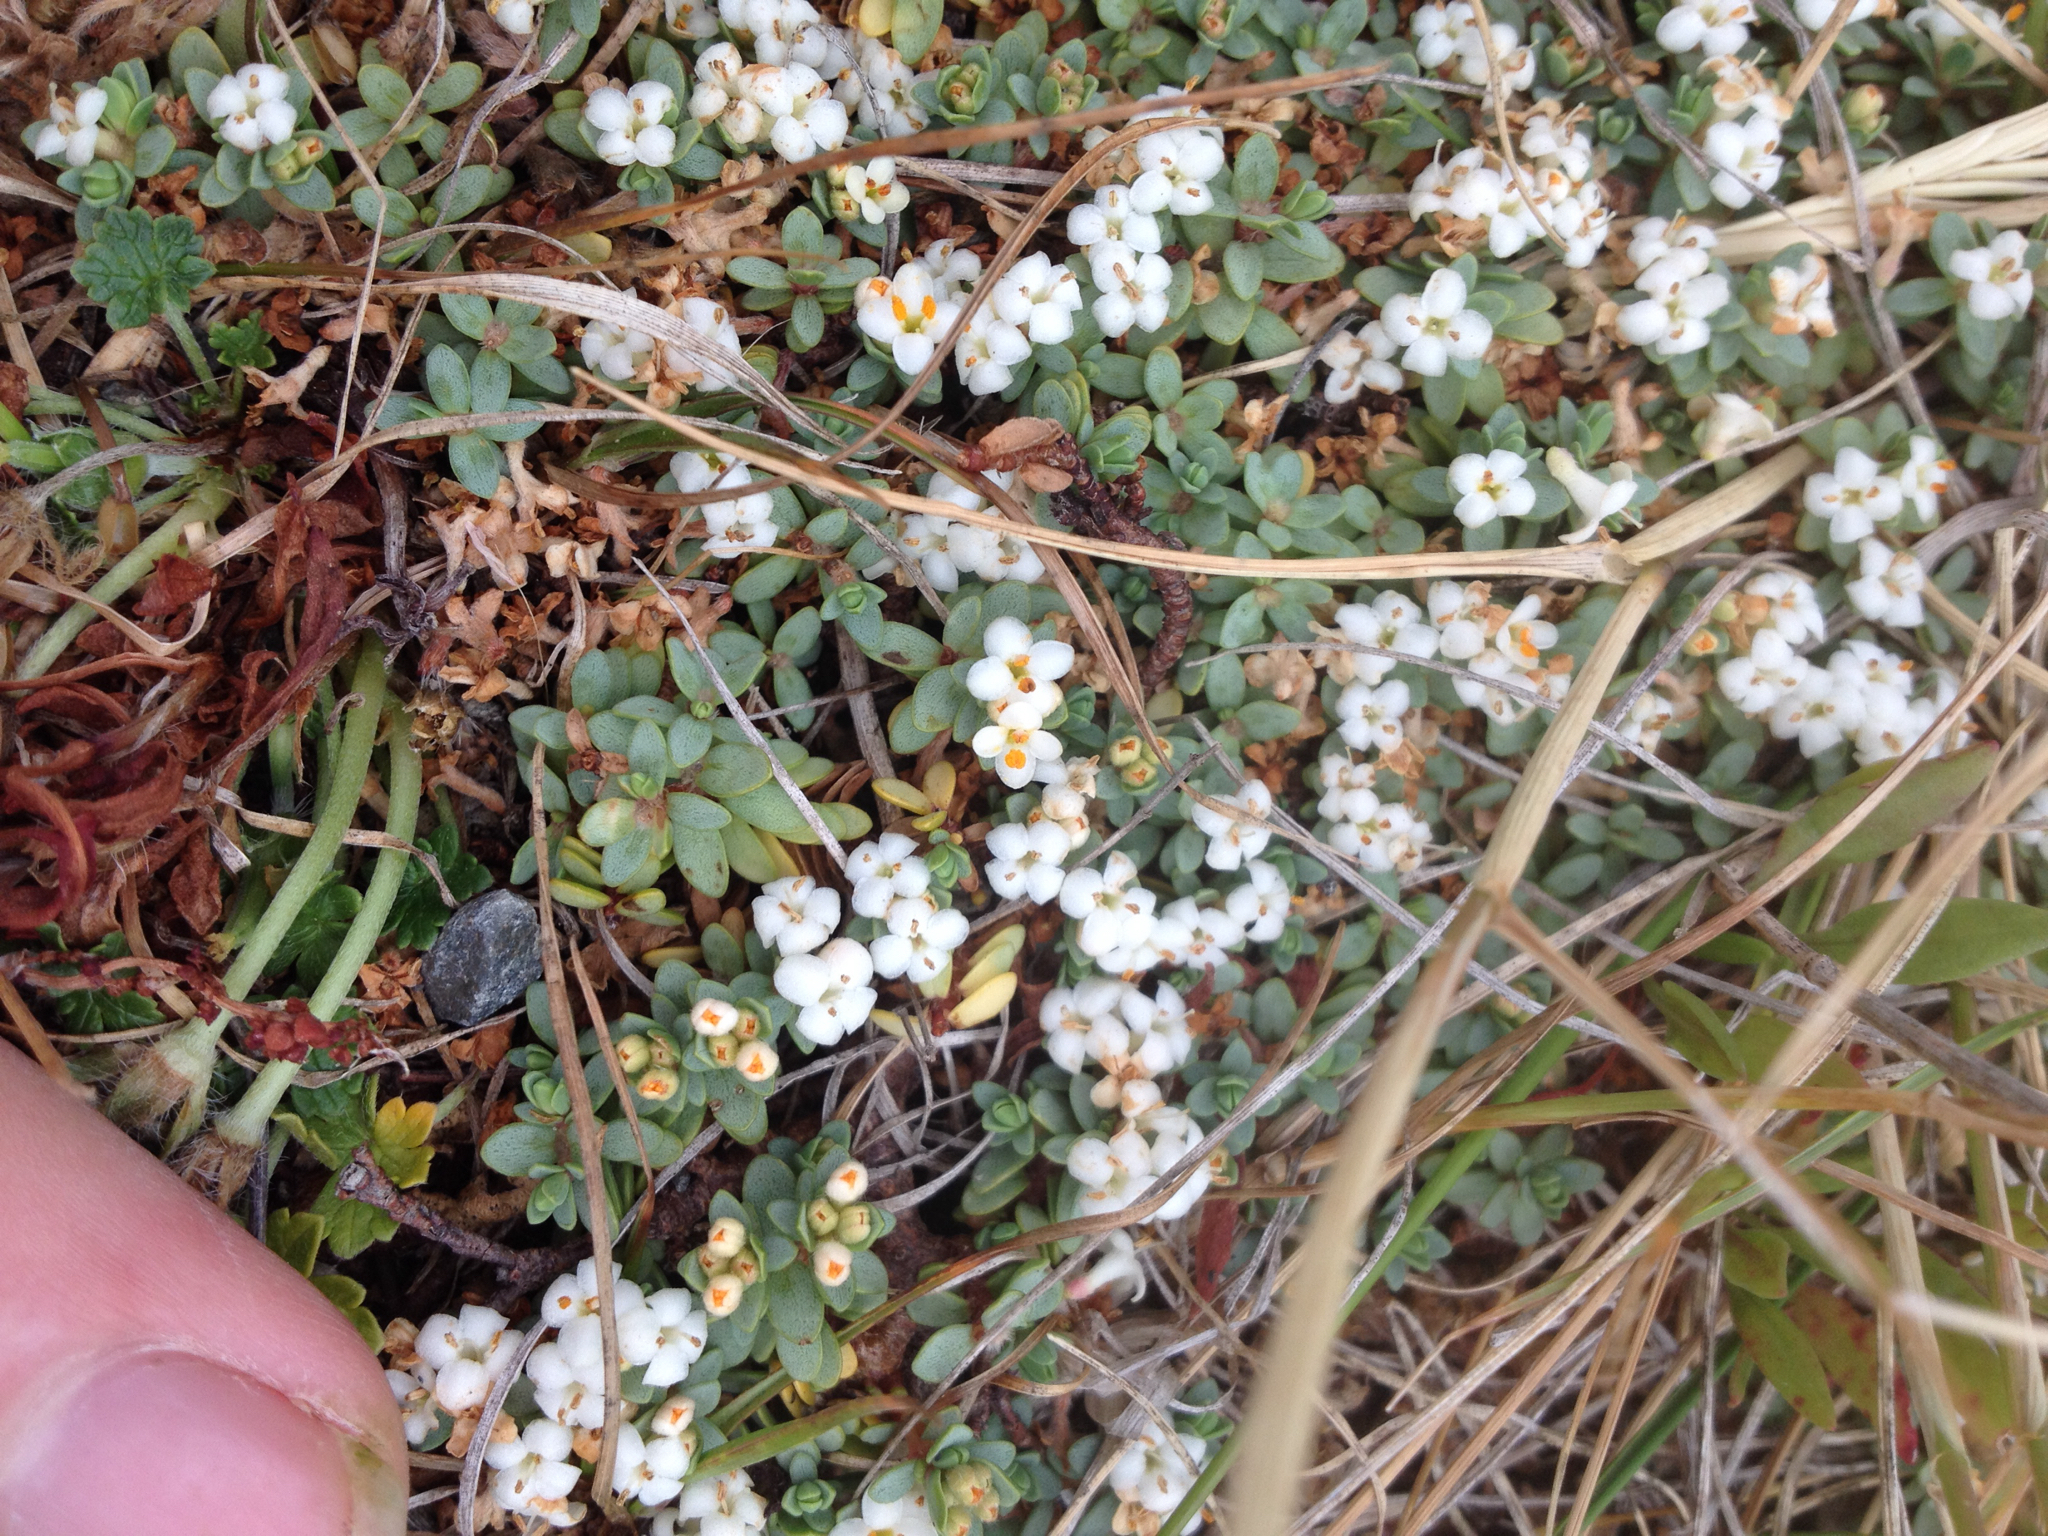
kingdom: Plantae
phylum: Tracheophyta
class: Magnoliopsida
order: Malvales
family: Thymelaeaceae
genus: Pimelea
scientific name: Pimelea prostrata
